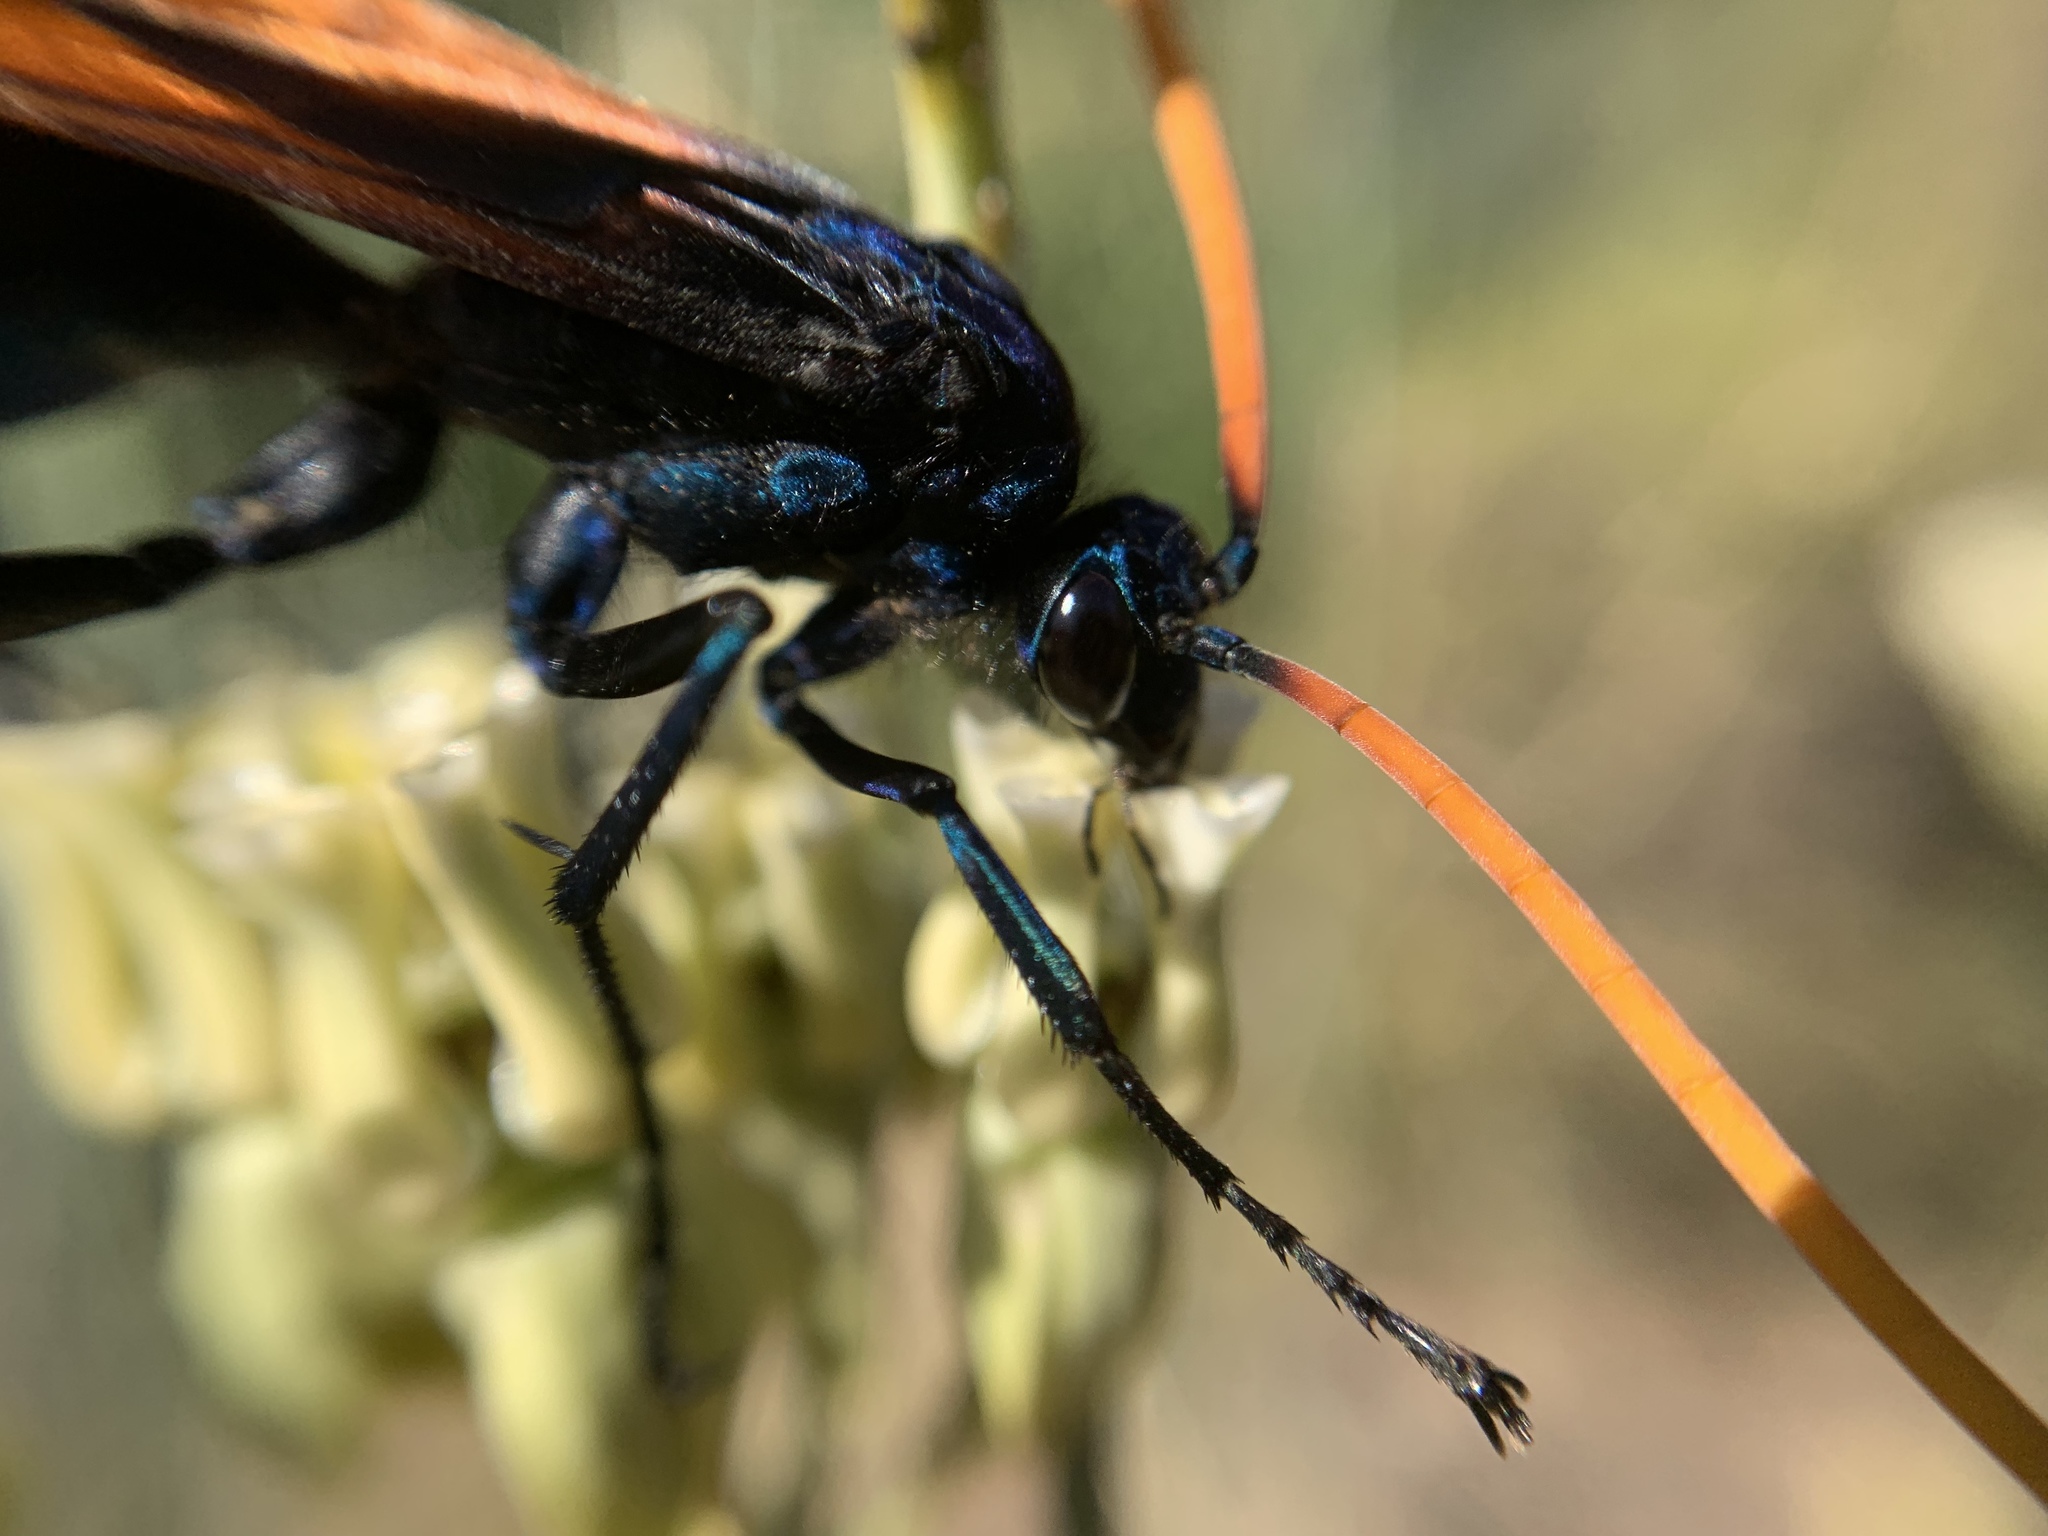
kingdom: Animalia
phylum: Arthropoda
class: Insecta
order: Hymenoptera
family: Pompilidae
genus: Pepsis
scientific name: Pepsis mildei
